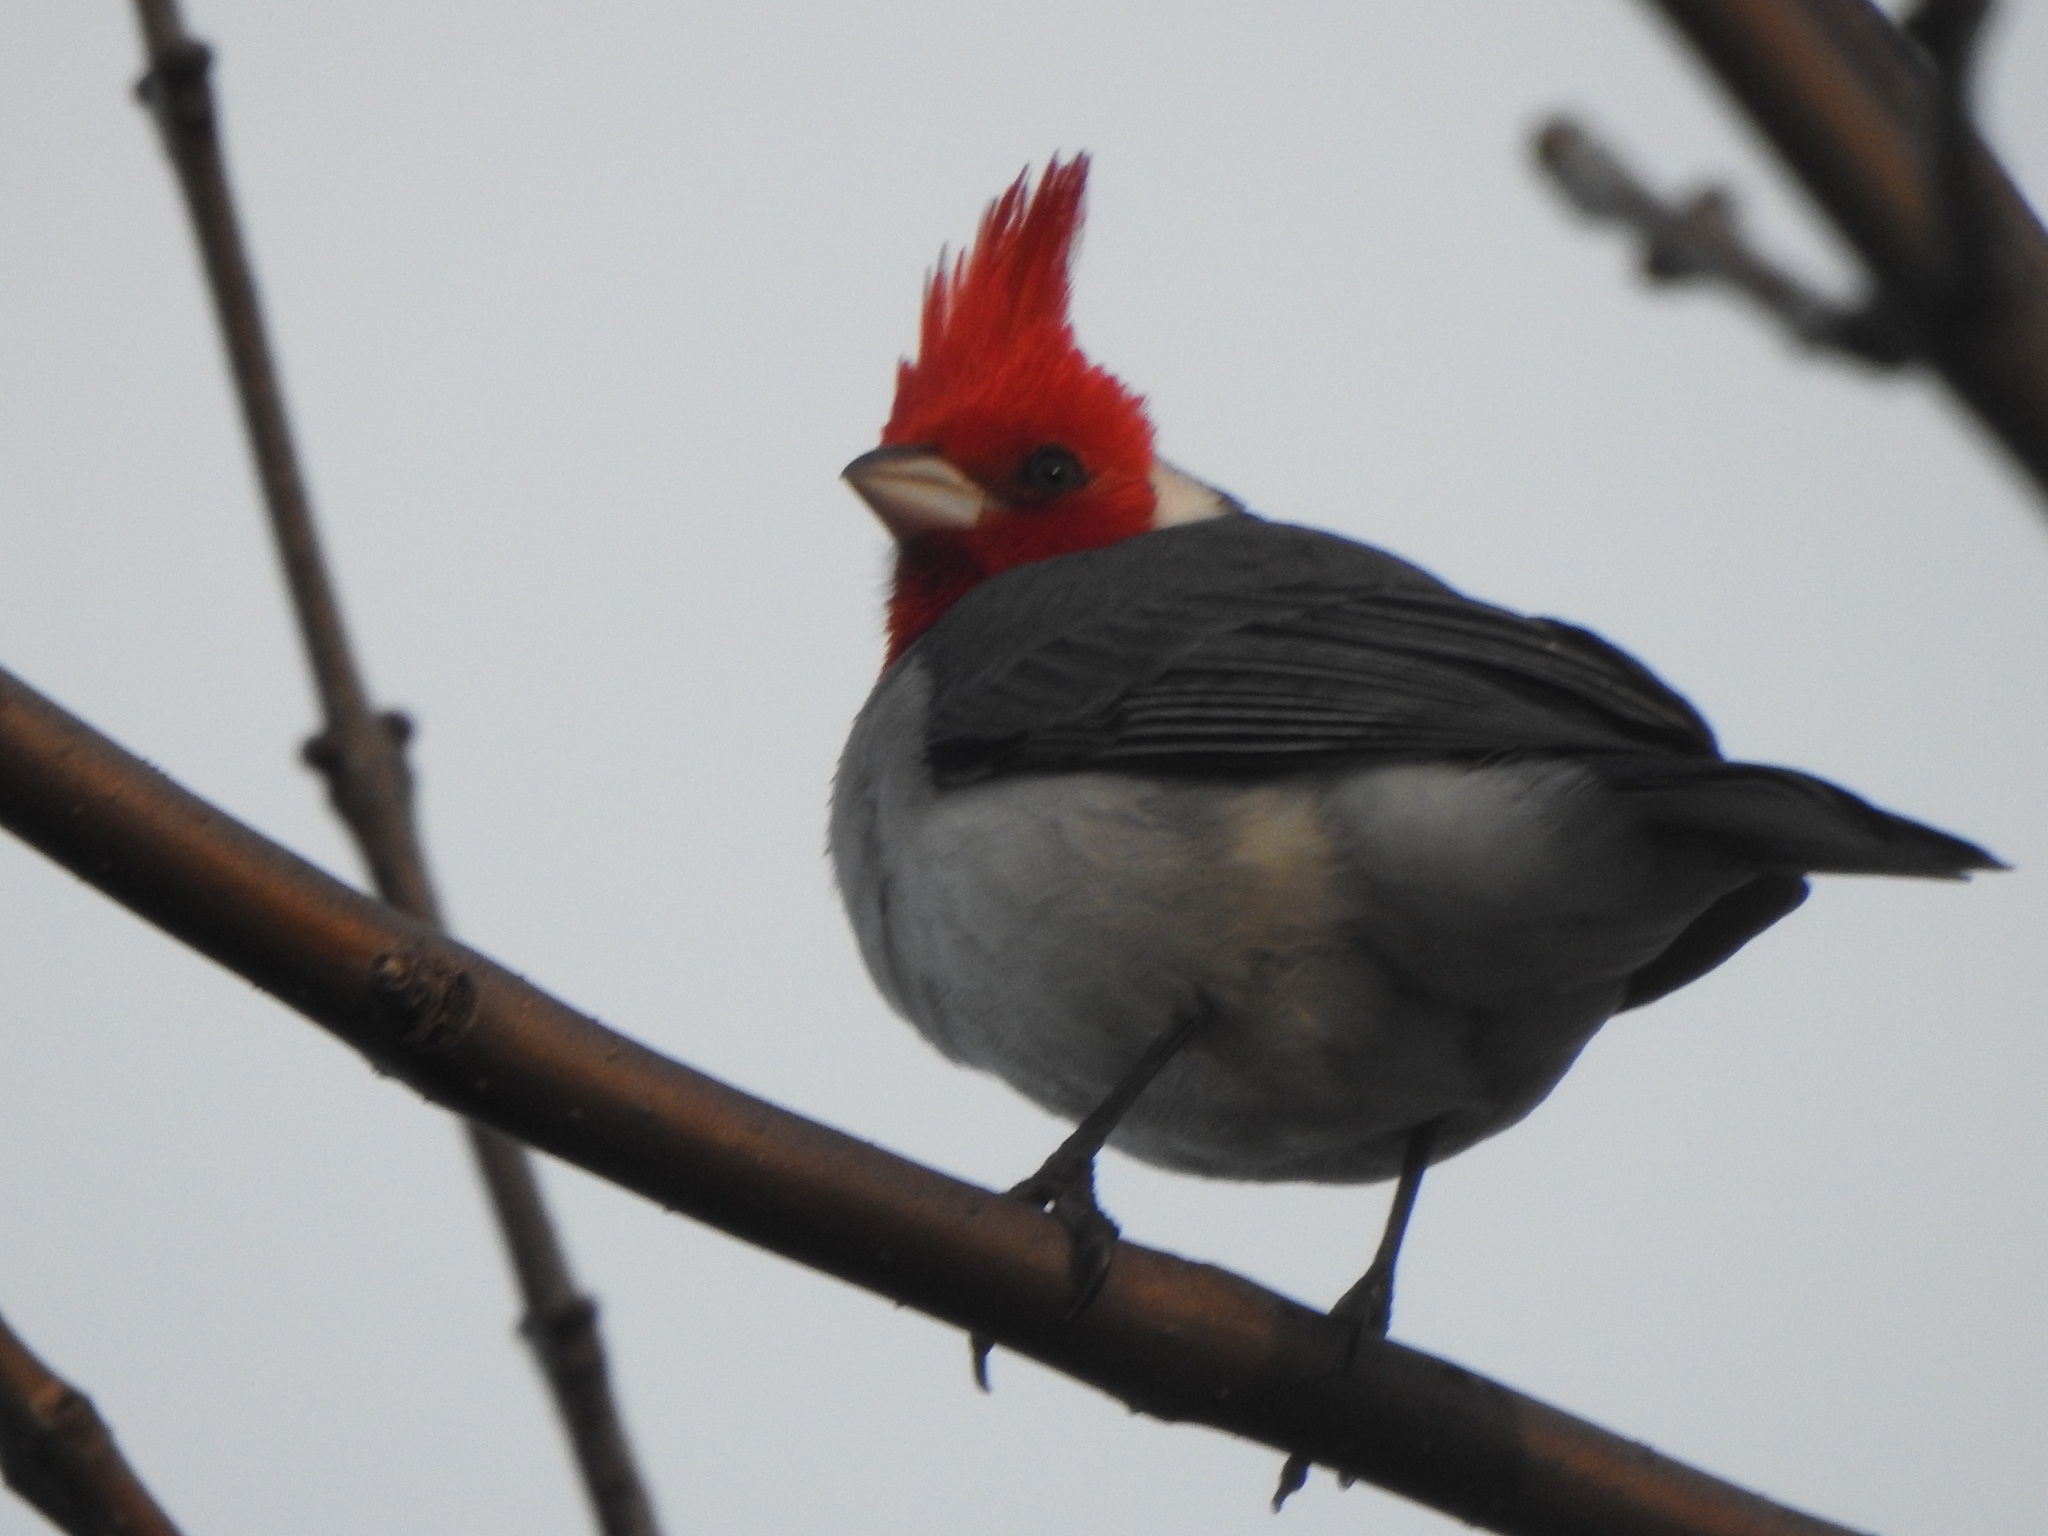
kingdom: Animalia
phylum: Chordata
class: Aves
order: Passeriformes
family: Thraupidae
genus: Paroaria
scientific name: Paroaria coronata
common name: Red-crested cardinal
